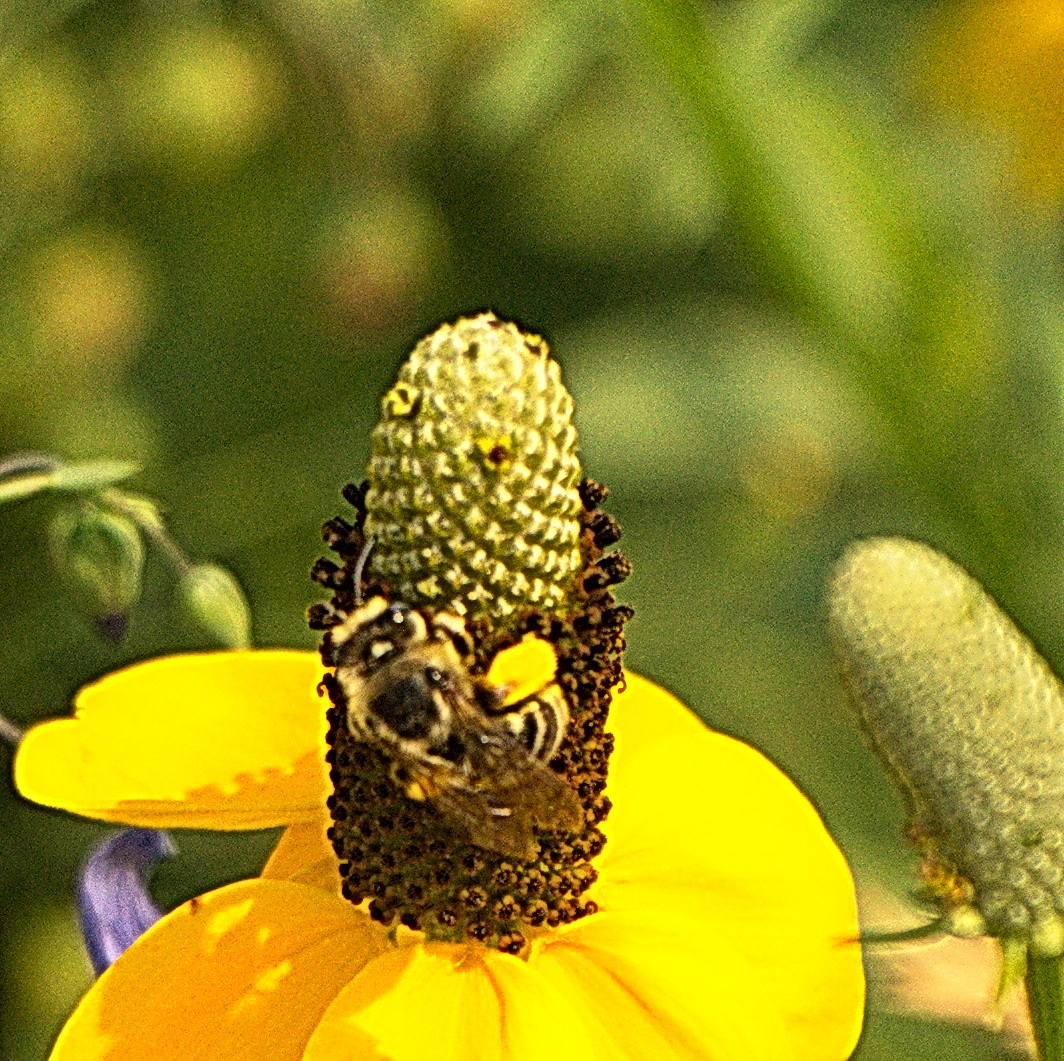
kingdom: Animalia
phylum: Arthropoda
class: Insecta
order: Hymenoptera
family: Apidae
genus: Melissodes
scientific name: Melissodes
